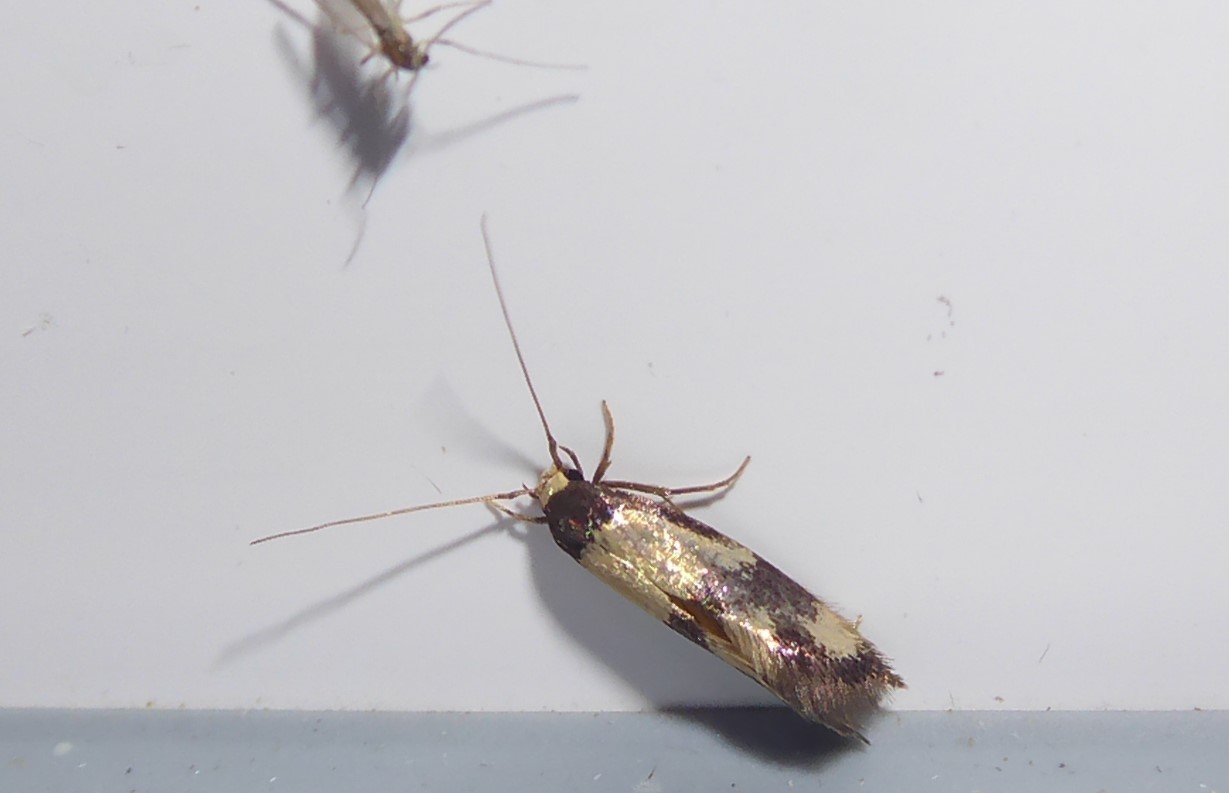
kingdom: Animalia
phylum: Arthropoda
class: Insecta
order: Lepidoptera
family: Tineidae
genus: Opogona
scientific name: Opogona comptella
